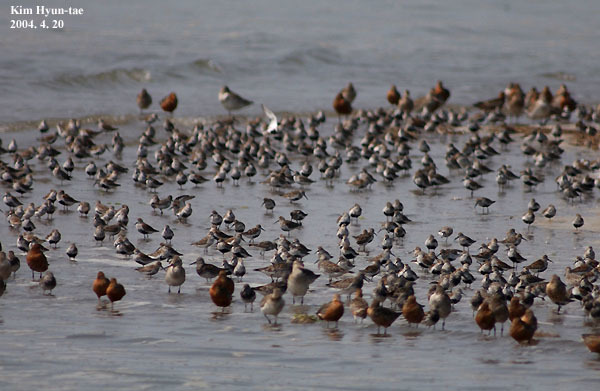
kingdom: Animalia
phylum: Chordata
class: Aves
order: Charadriiformes
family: Scolopacidae
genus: Calidris
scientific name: Calidris alpina
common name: Dunlin
